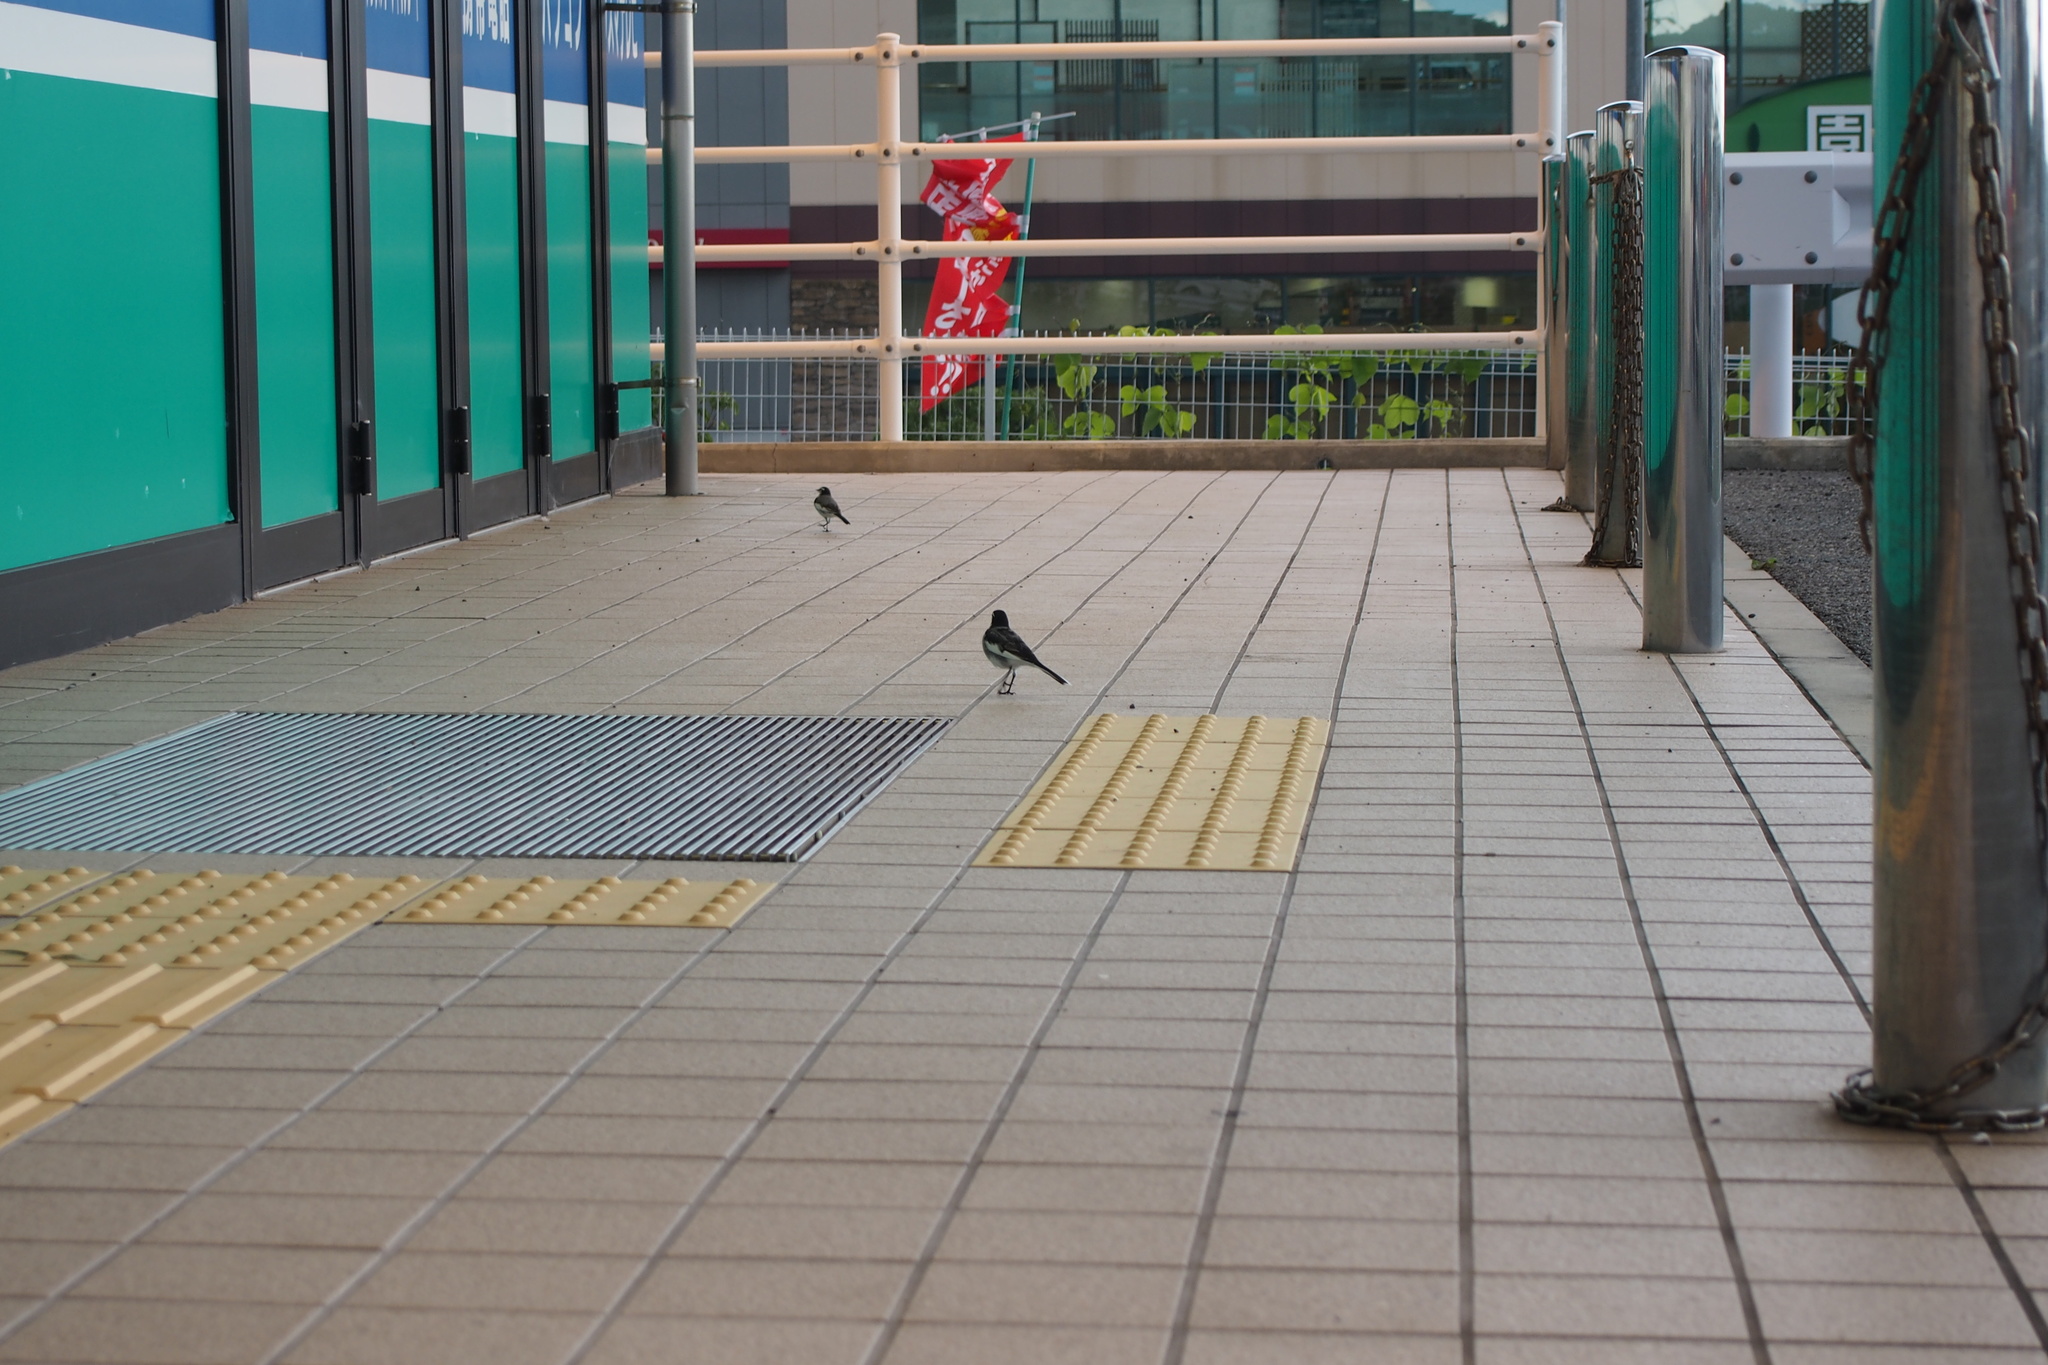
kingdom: Animalia
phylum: Chordata
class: Aves
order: Passeriformes
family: Motacillidae
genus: Motacilla
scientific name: Motacilla alba
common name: White wagtail
